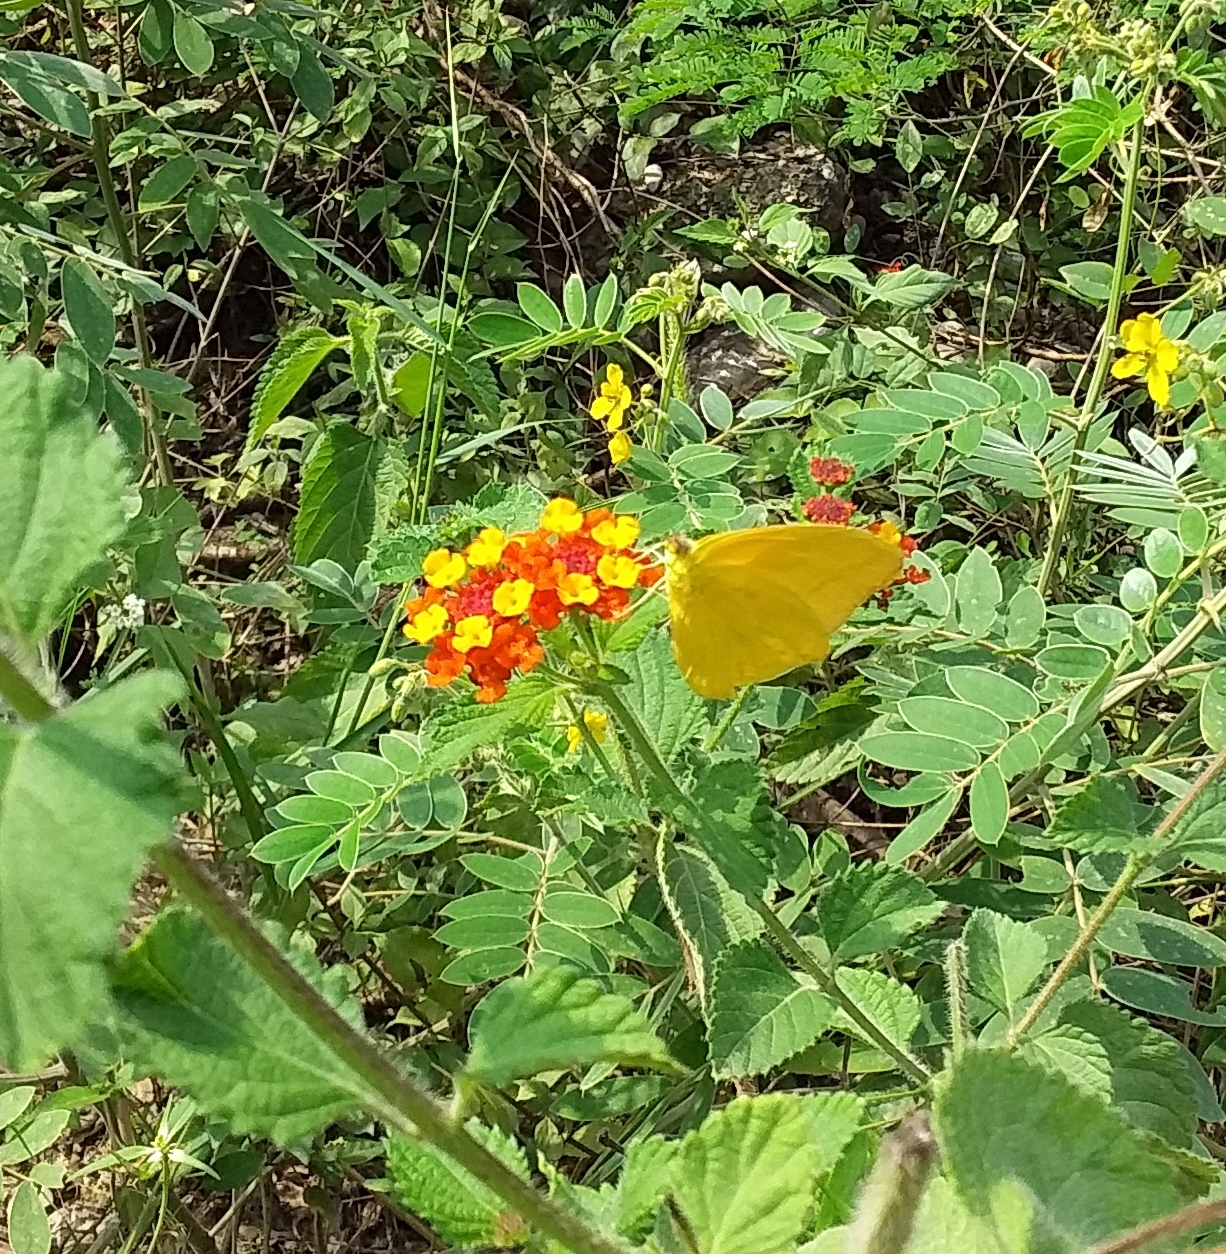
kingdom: Animalia
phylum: Arthropoda
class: Insecta
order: Lepidoptera
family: Pieridae
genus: Phoebis
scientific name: Phoebis agarithe
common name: Large orange sulphur
